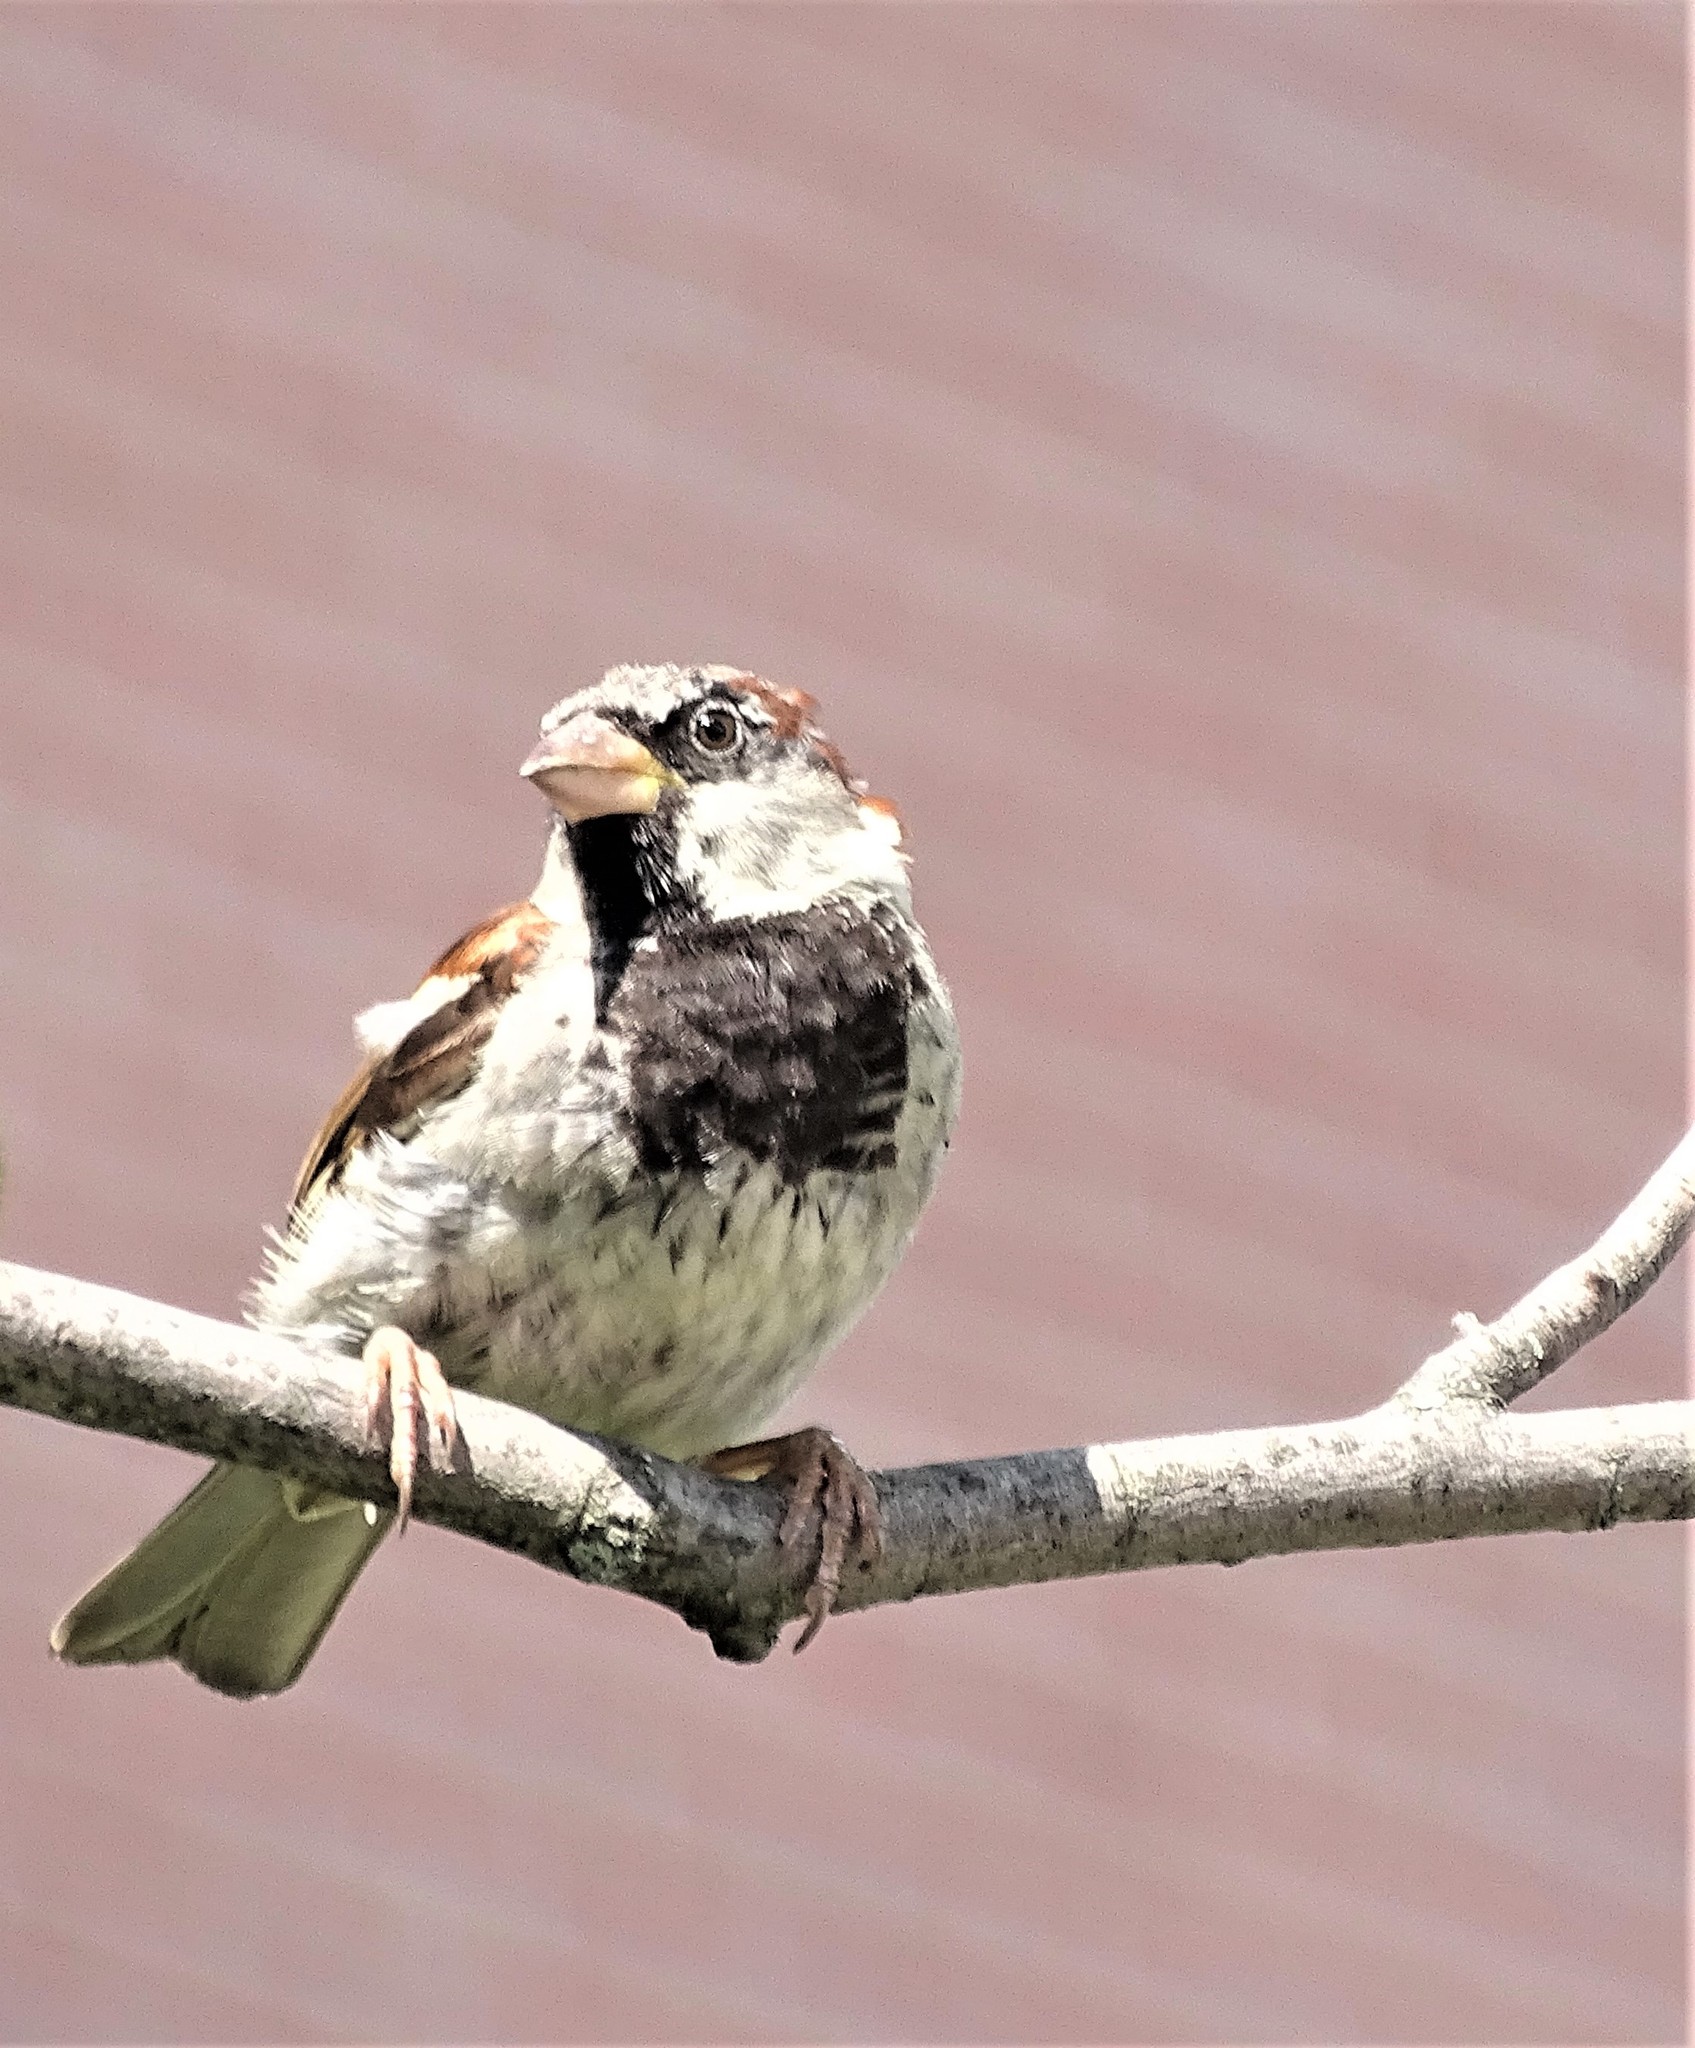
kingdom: Animalia
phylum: Chordata
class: Aves
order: Passeriformes
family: Passeridae
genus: Passer
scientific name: Passer domesticus
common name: House sparrow
